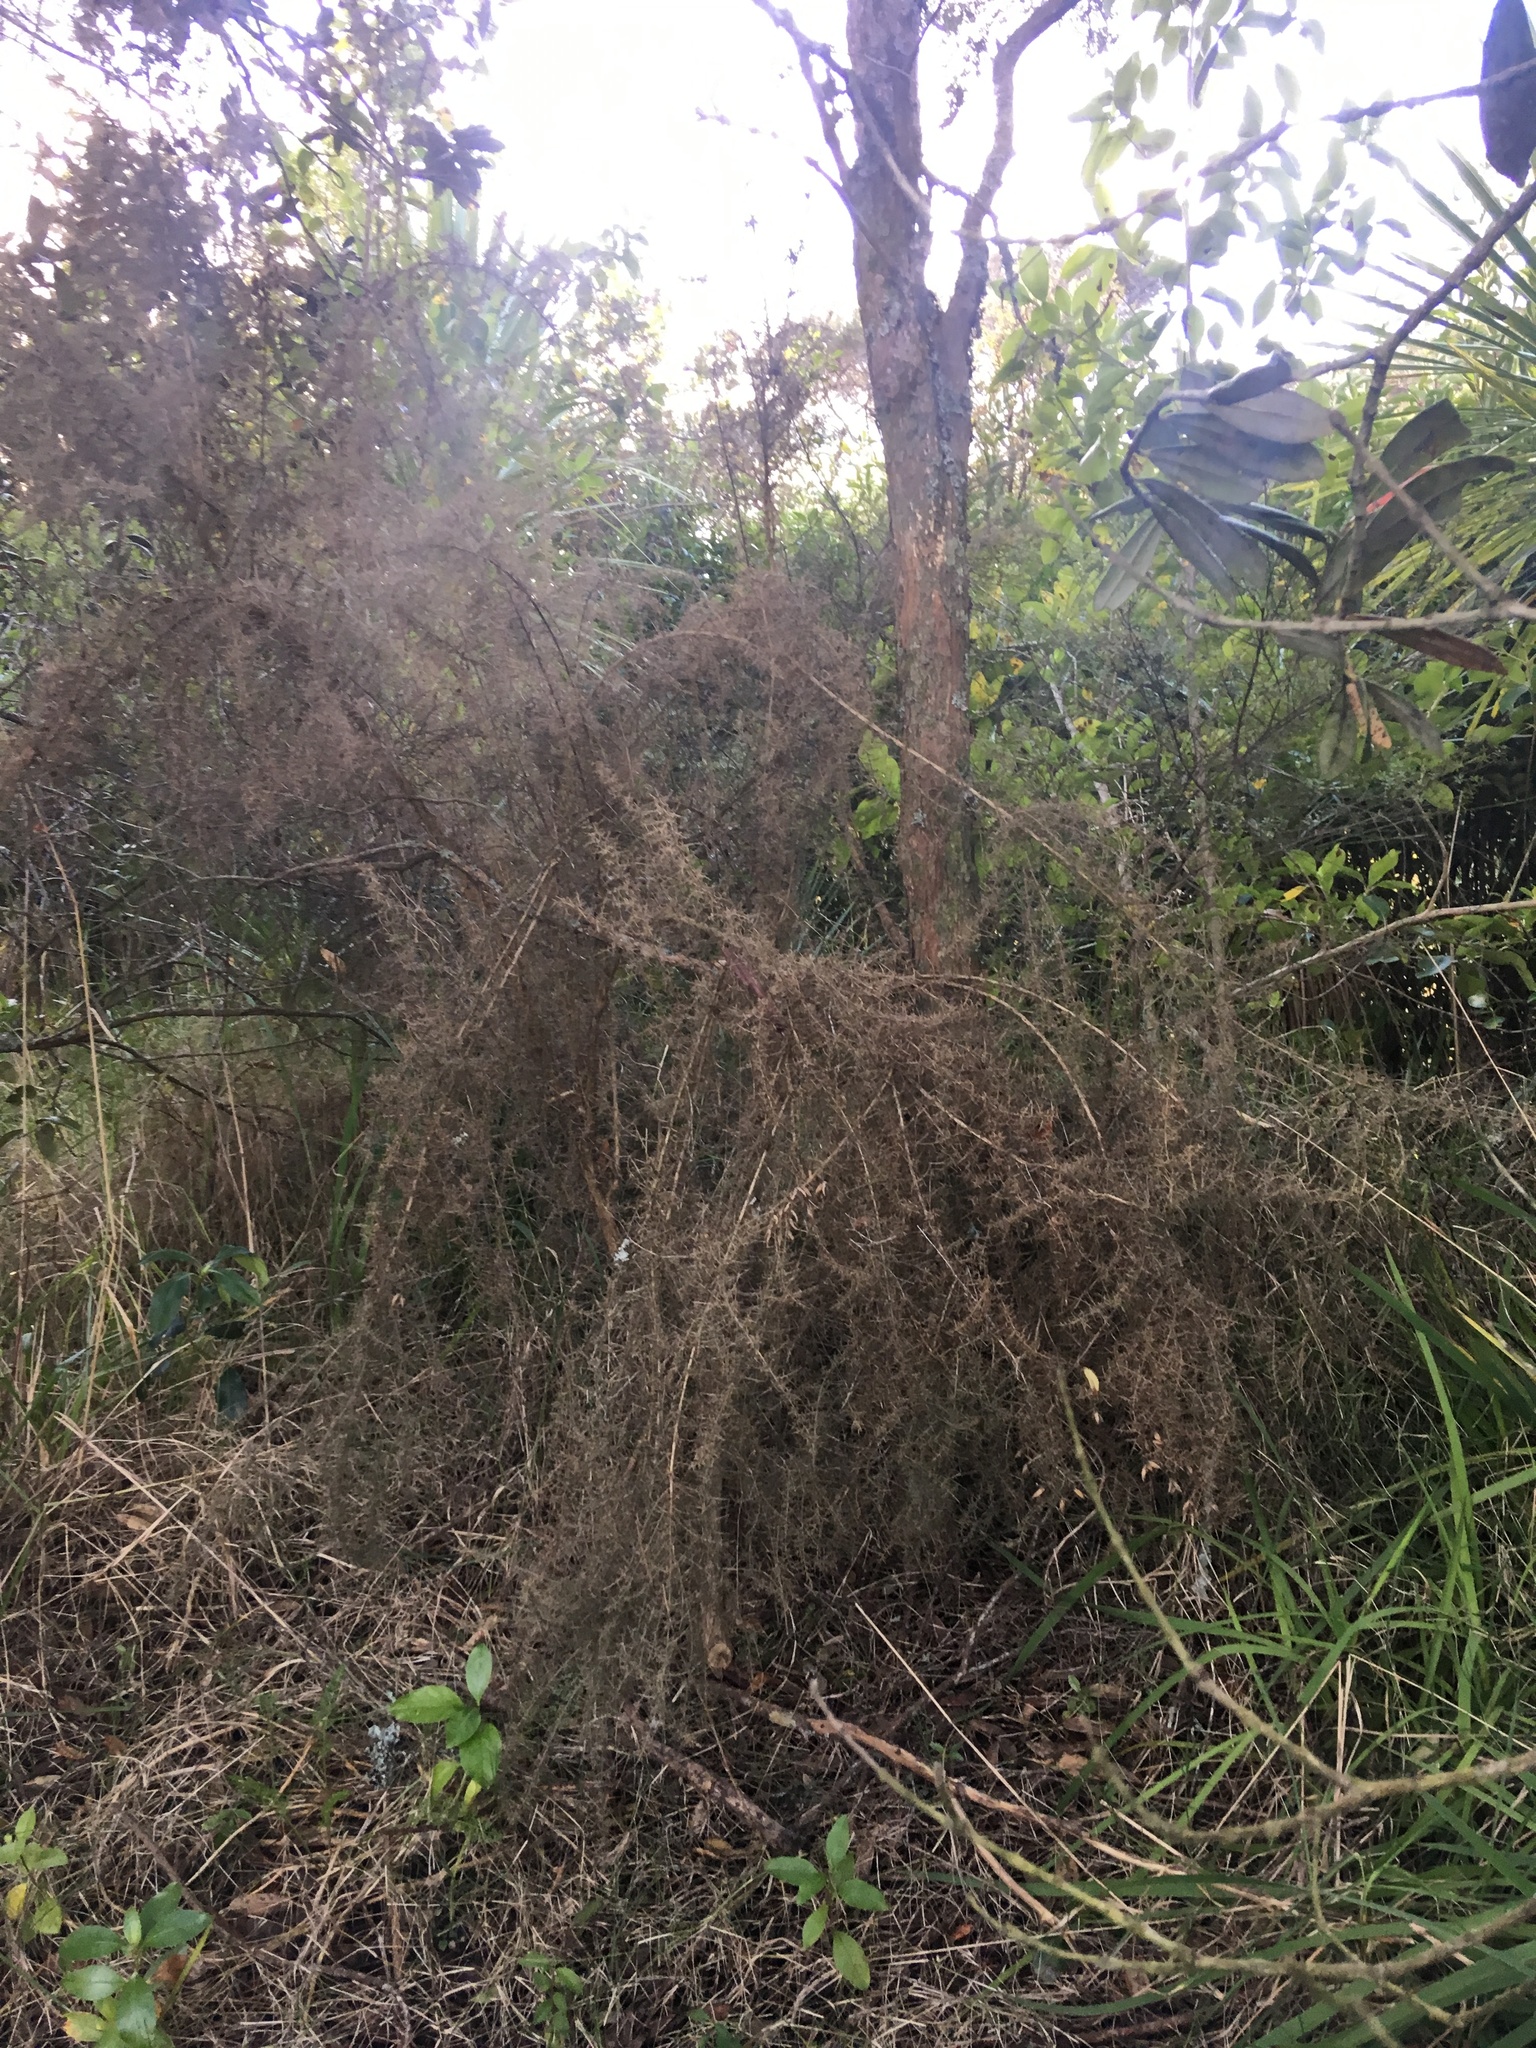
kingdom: Plantae
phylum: Tracheophyta
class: Magnoliopsida
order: Fabales
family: Fabaceae
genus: Ulex
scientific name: Ulex europaeus
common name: Common gorse
